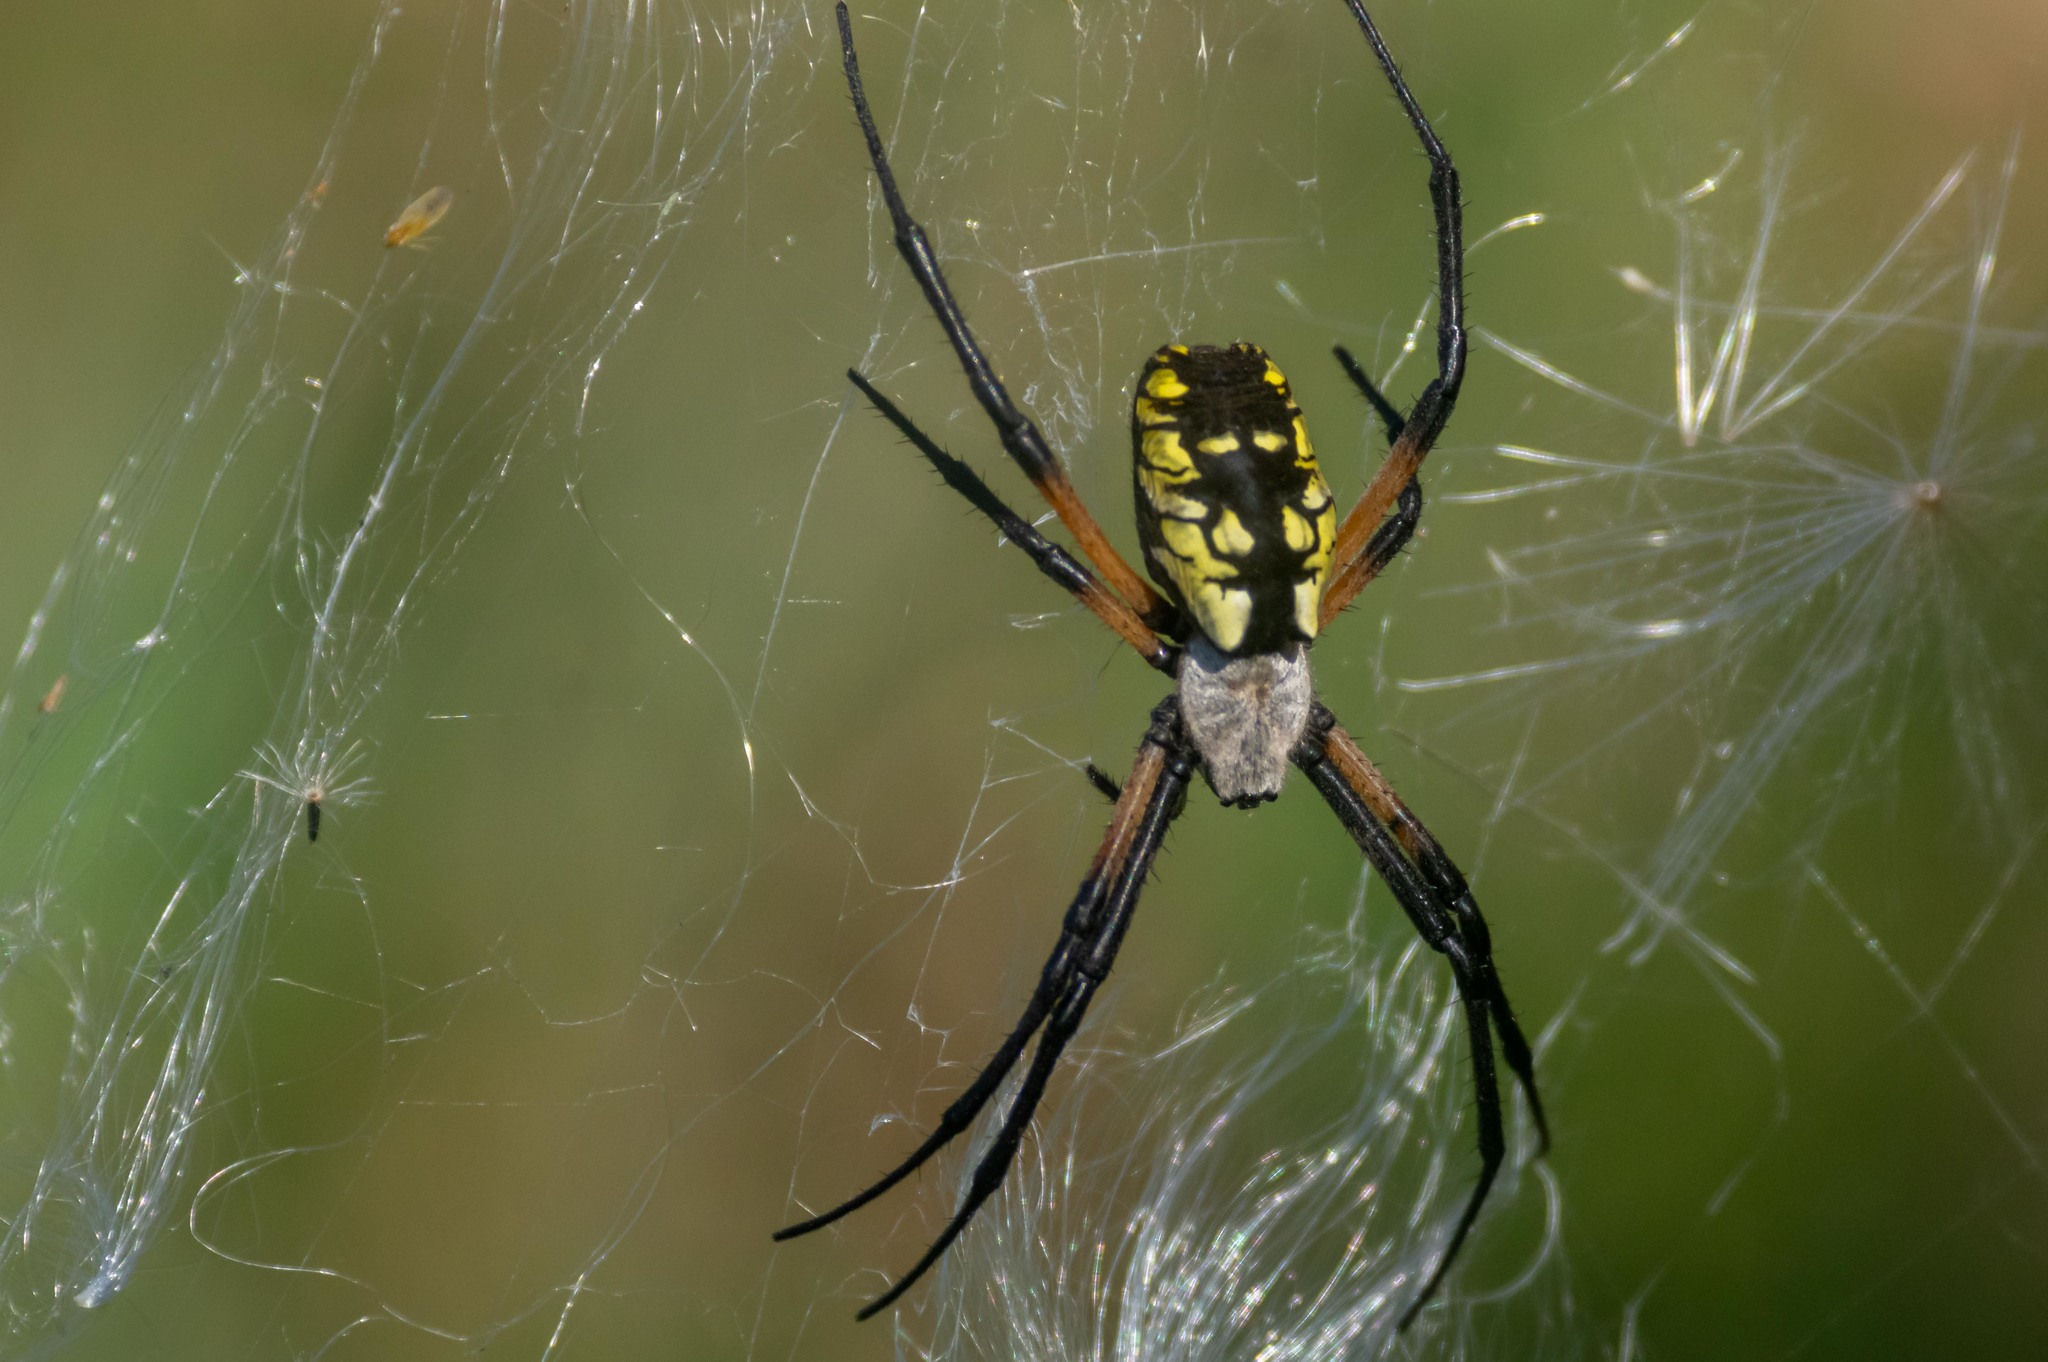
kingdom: Animalia
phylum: Arthropoda
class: Arachnida
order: Araneae
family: Araneidae
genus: Argiope
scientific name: Argiope aurantia
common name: Orb weavers
